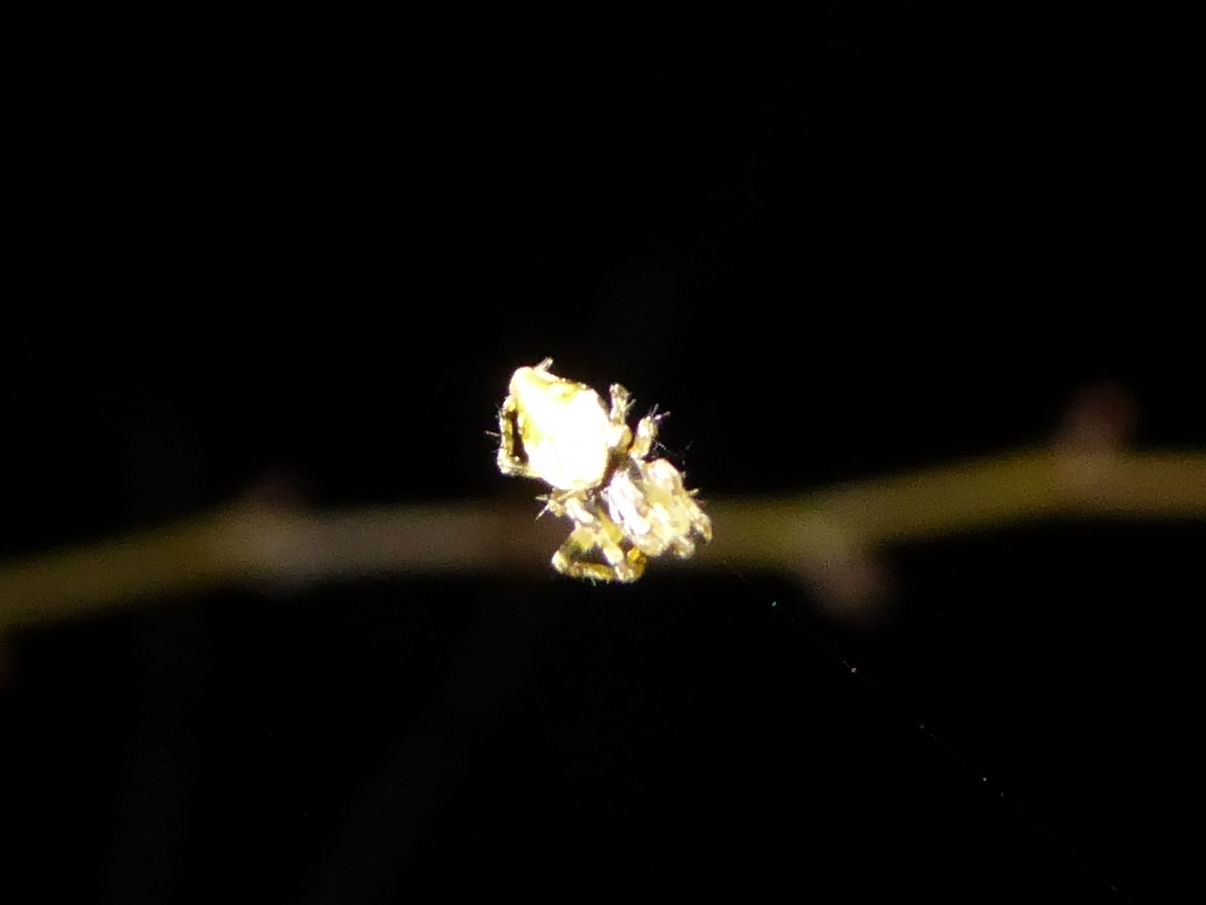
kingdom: Animalia
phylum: Arthropoda
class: Arachnida
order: Araneae
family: Araneidae
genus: Cyclosa
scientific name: Cyclosa conica
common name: Conical trashline orbweaver
